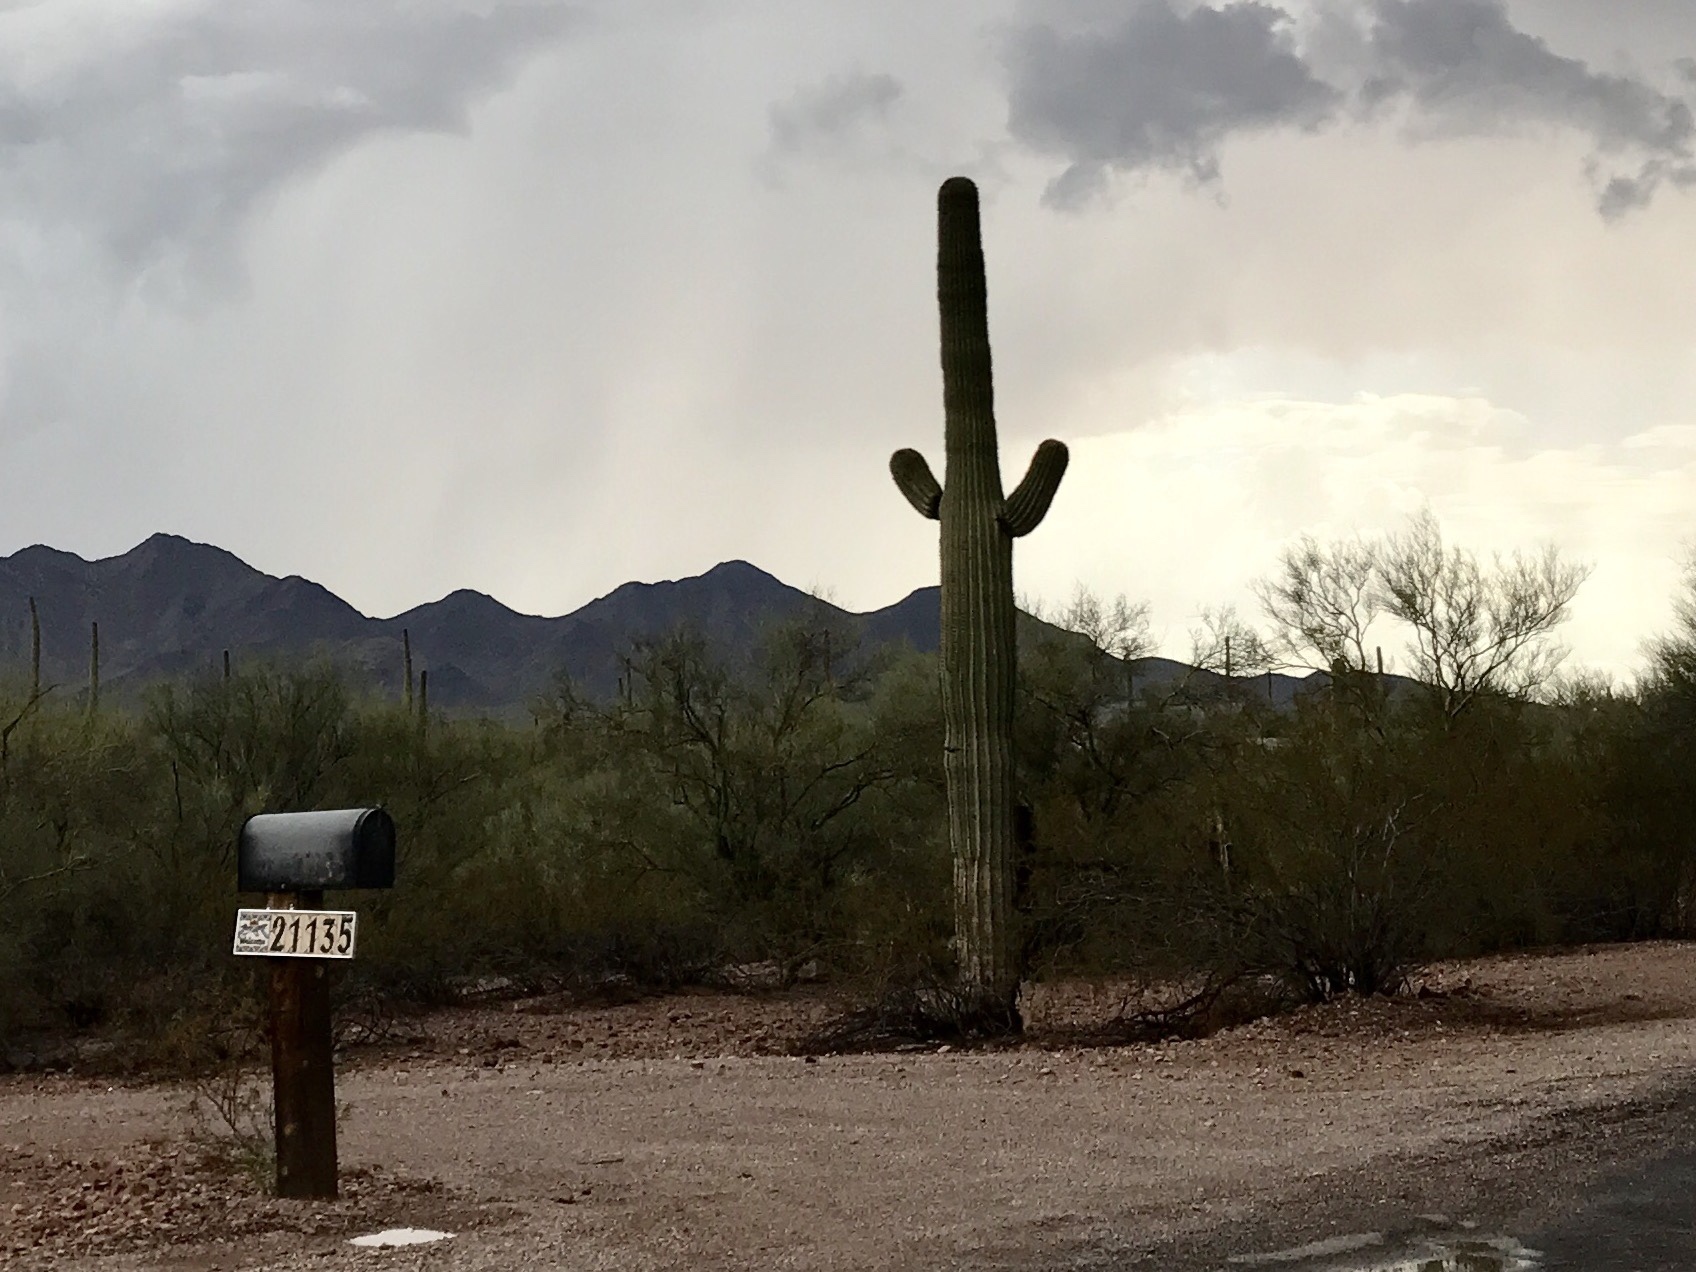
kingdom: Plantae
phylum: Tracheophyta
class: Magnoliopsida
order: Caryophyllales
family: Cactaceae
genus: Carnegiea
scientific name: Carnegiea gigantea
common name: Saguaro
